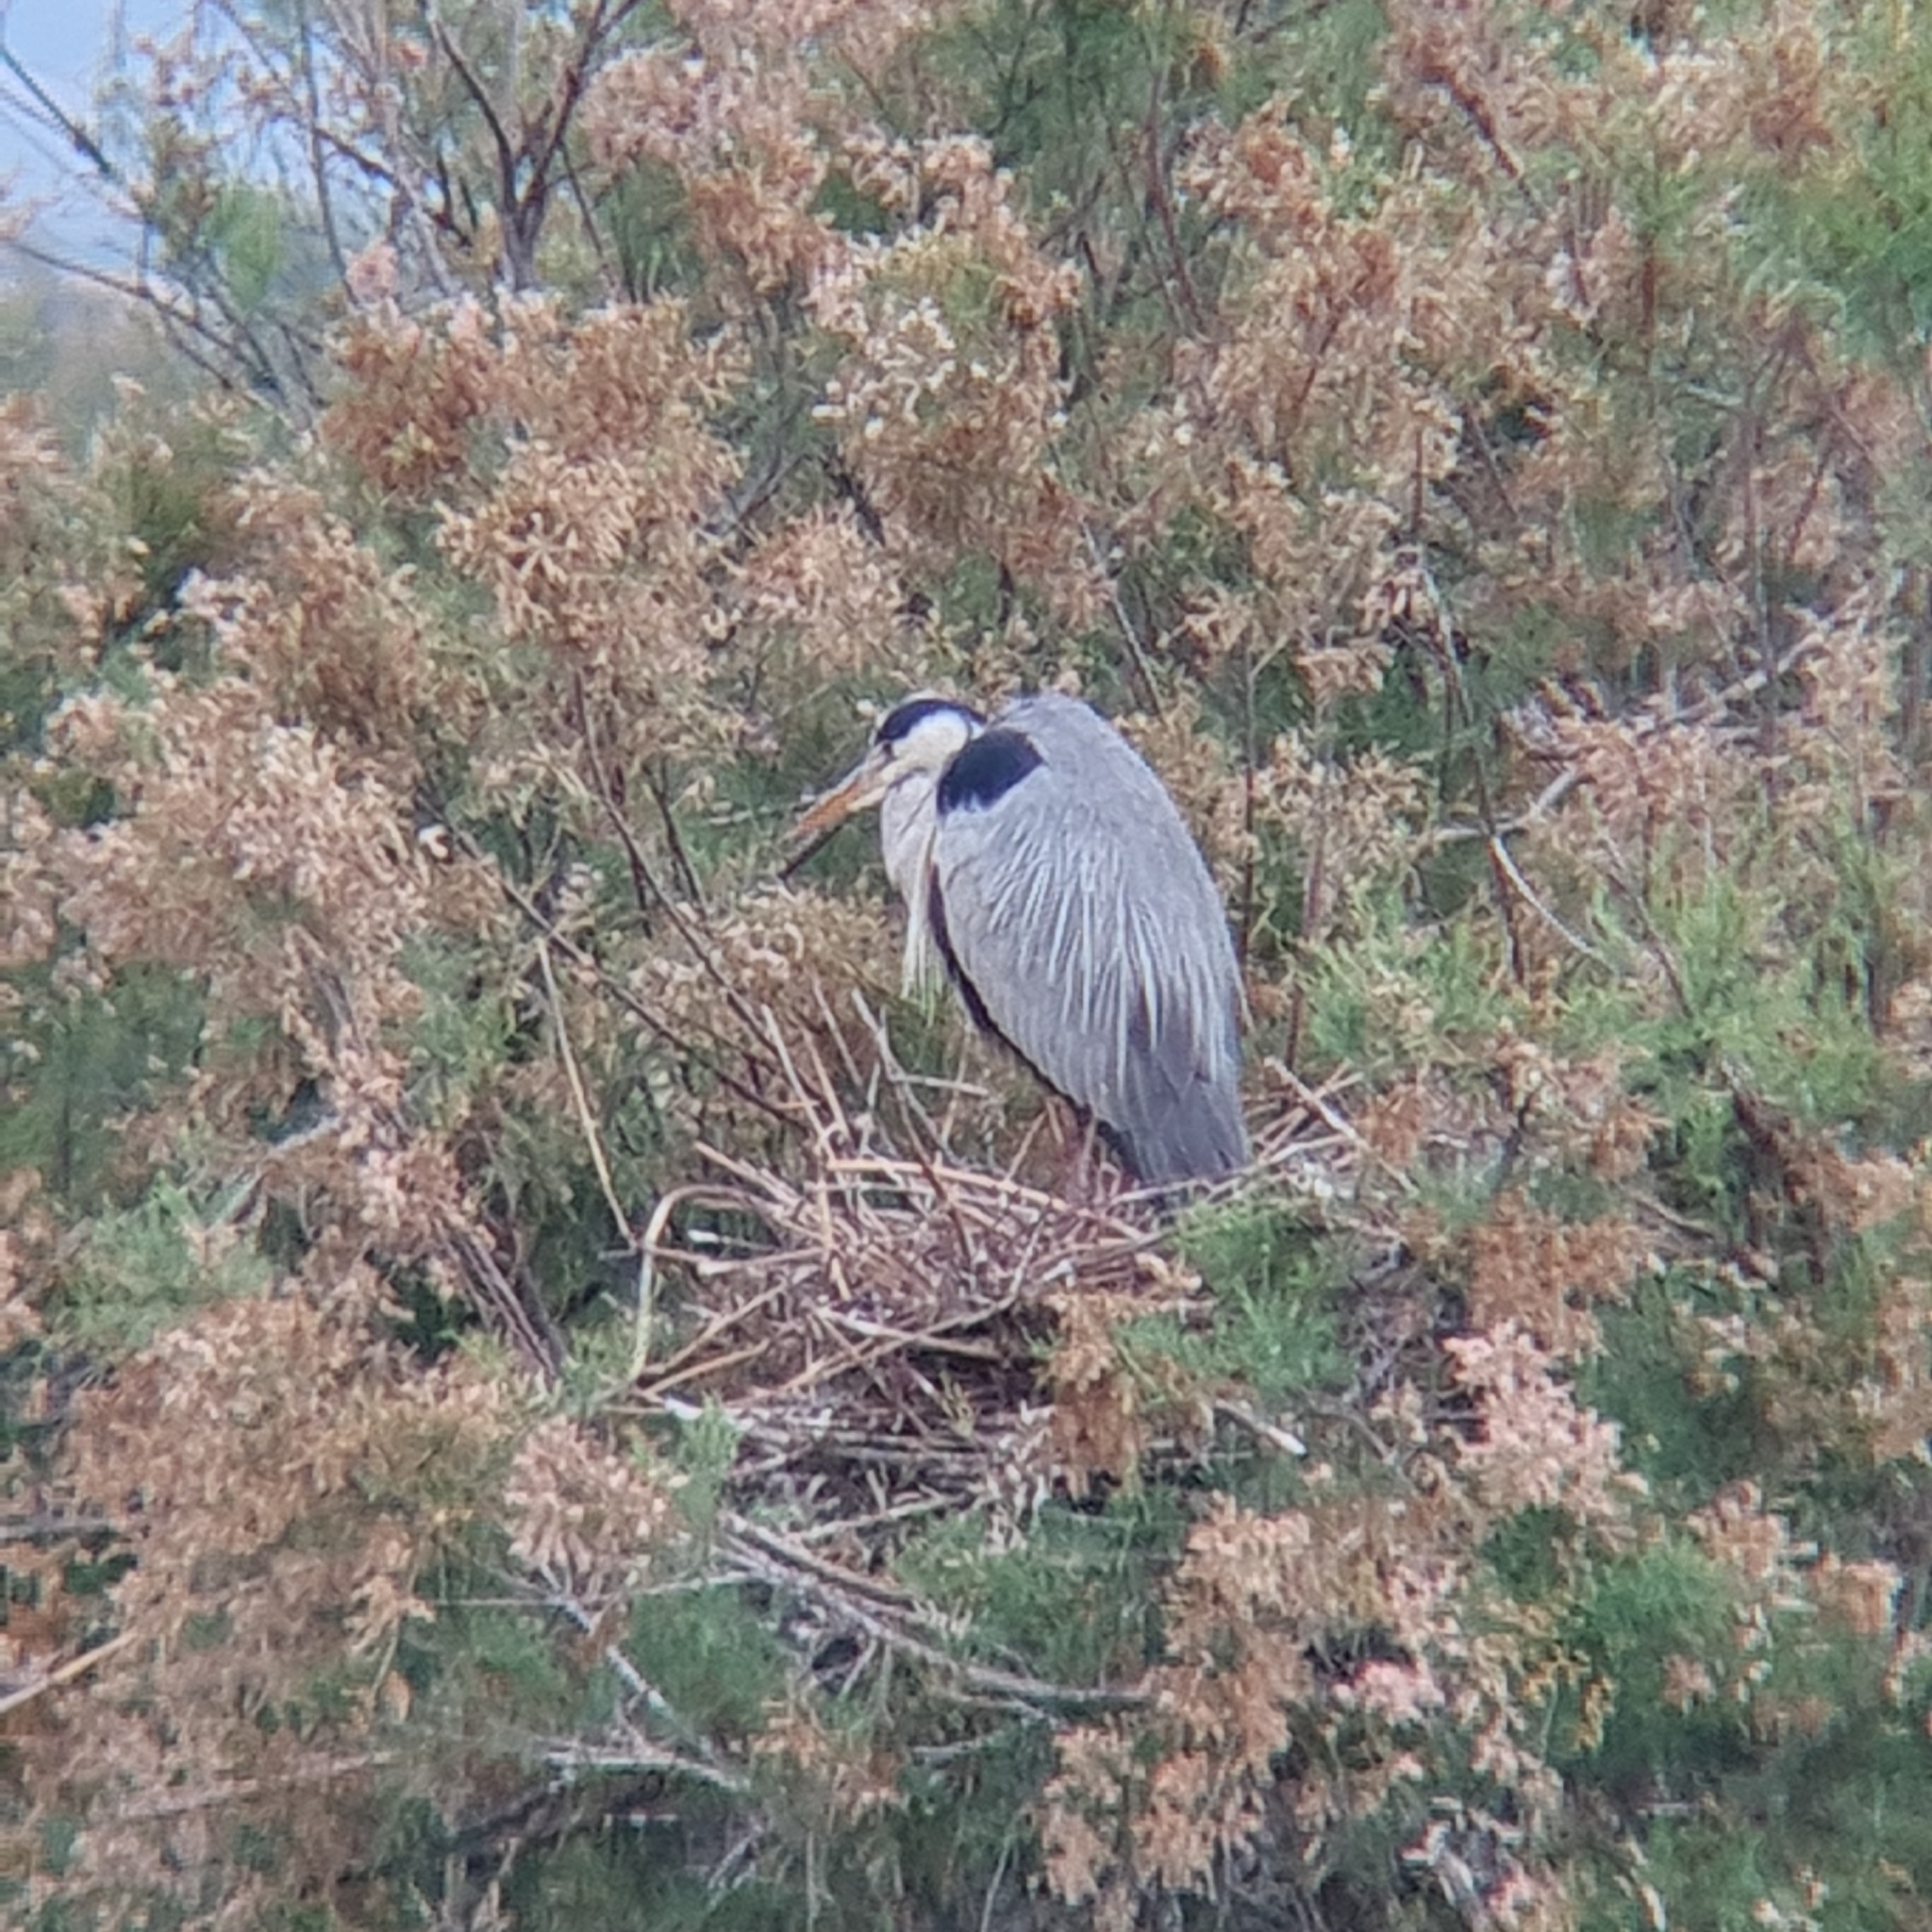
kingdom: Animalia
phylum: Chordata
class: Aves
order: Pelecaniformes
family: Ardeidae
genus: Ardea
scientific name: Ardea cinerea
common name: Grey heron
